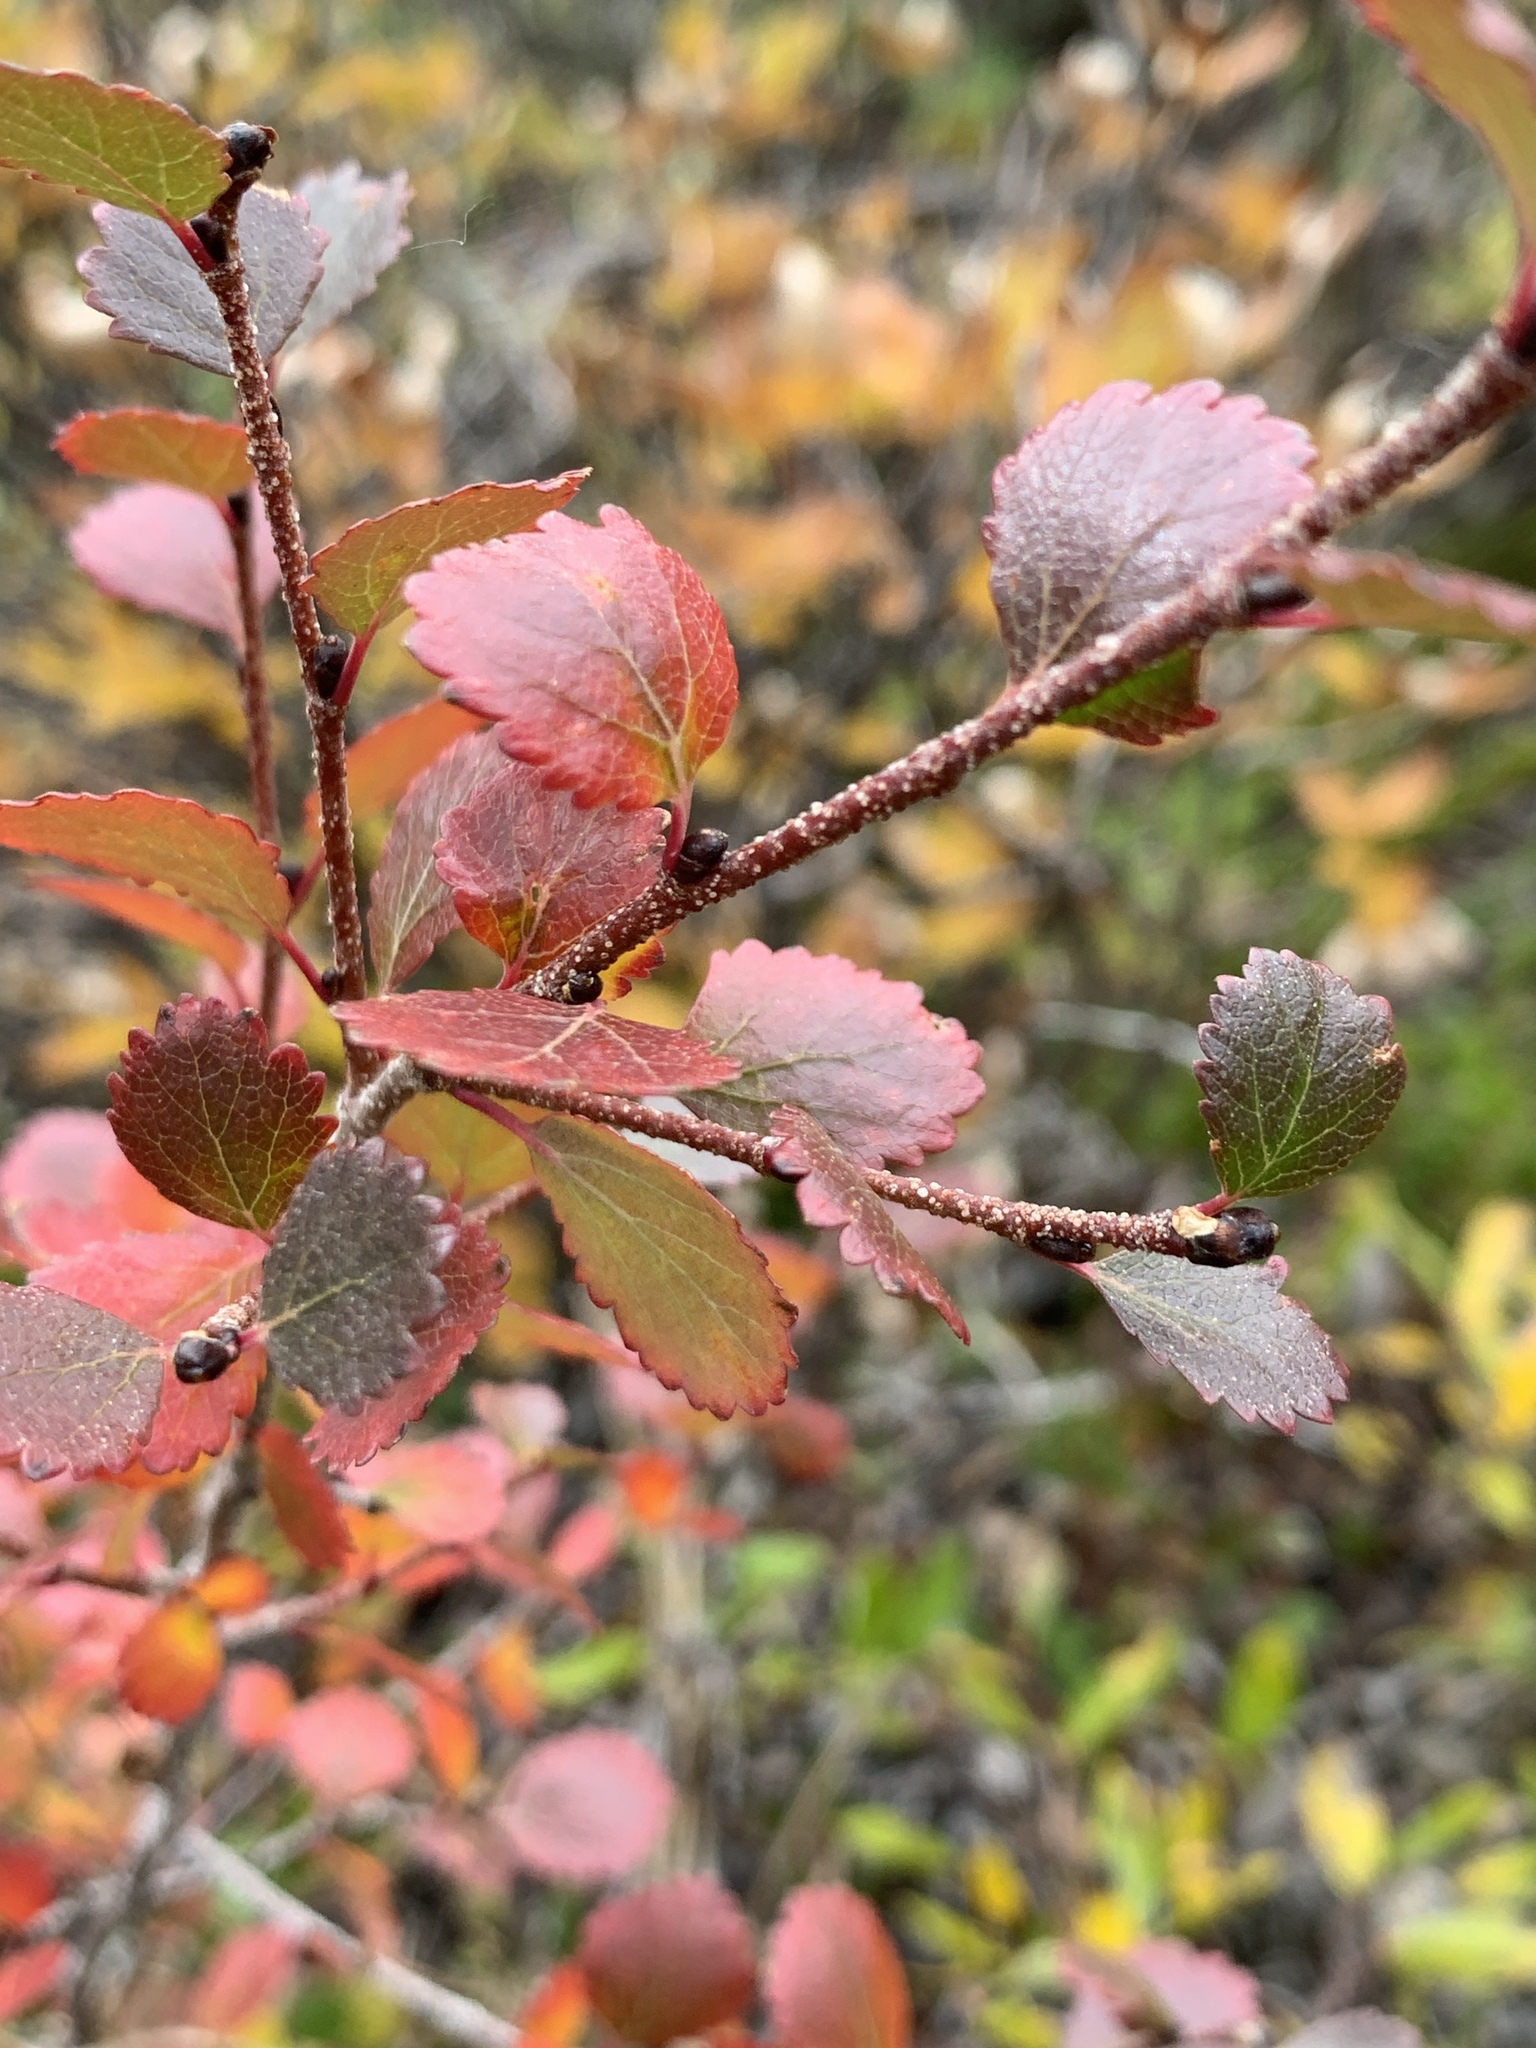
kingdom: Plantae
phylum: Tracheophyta
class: Magnoliopsida
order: Fagales
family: Betulaceae
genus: Betula
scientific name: Betula glandulosa
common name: Dwarf birch
